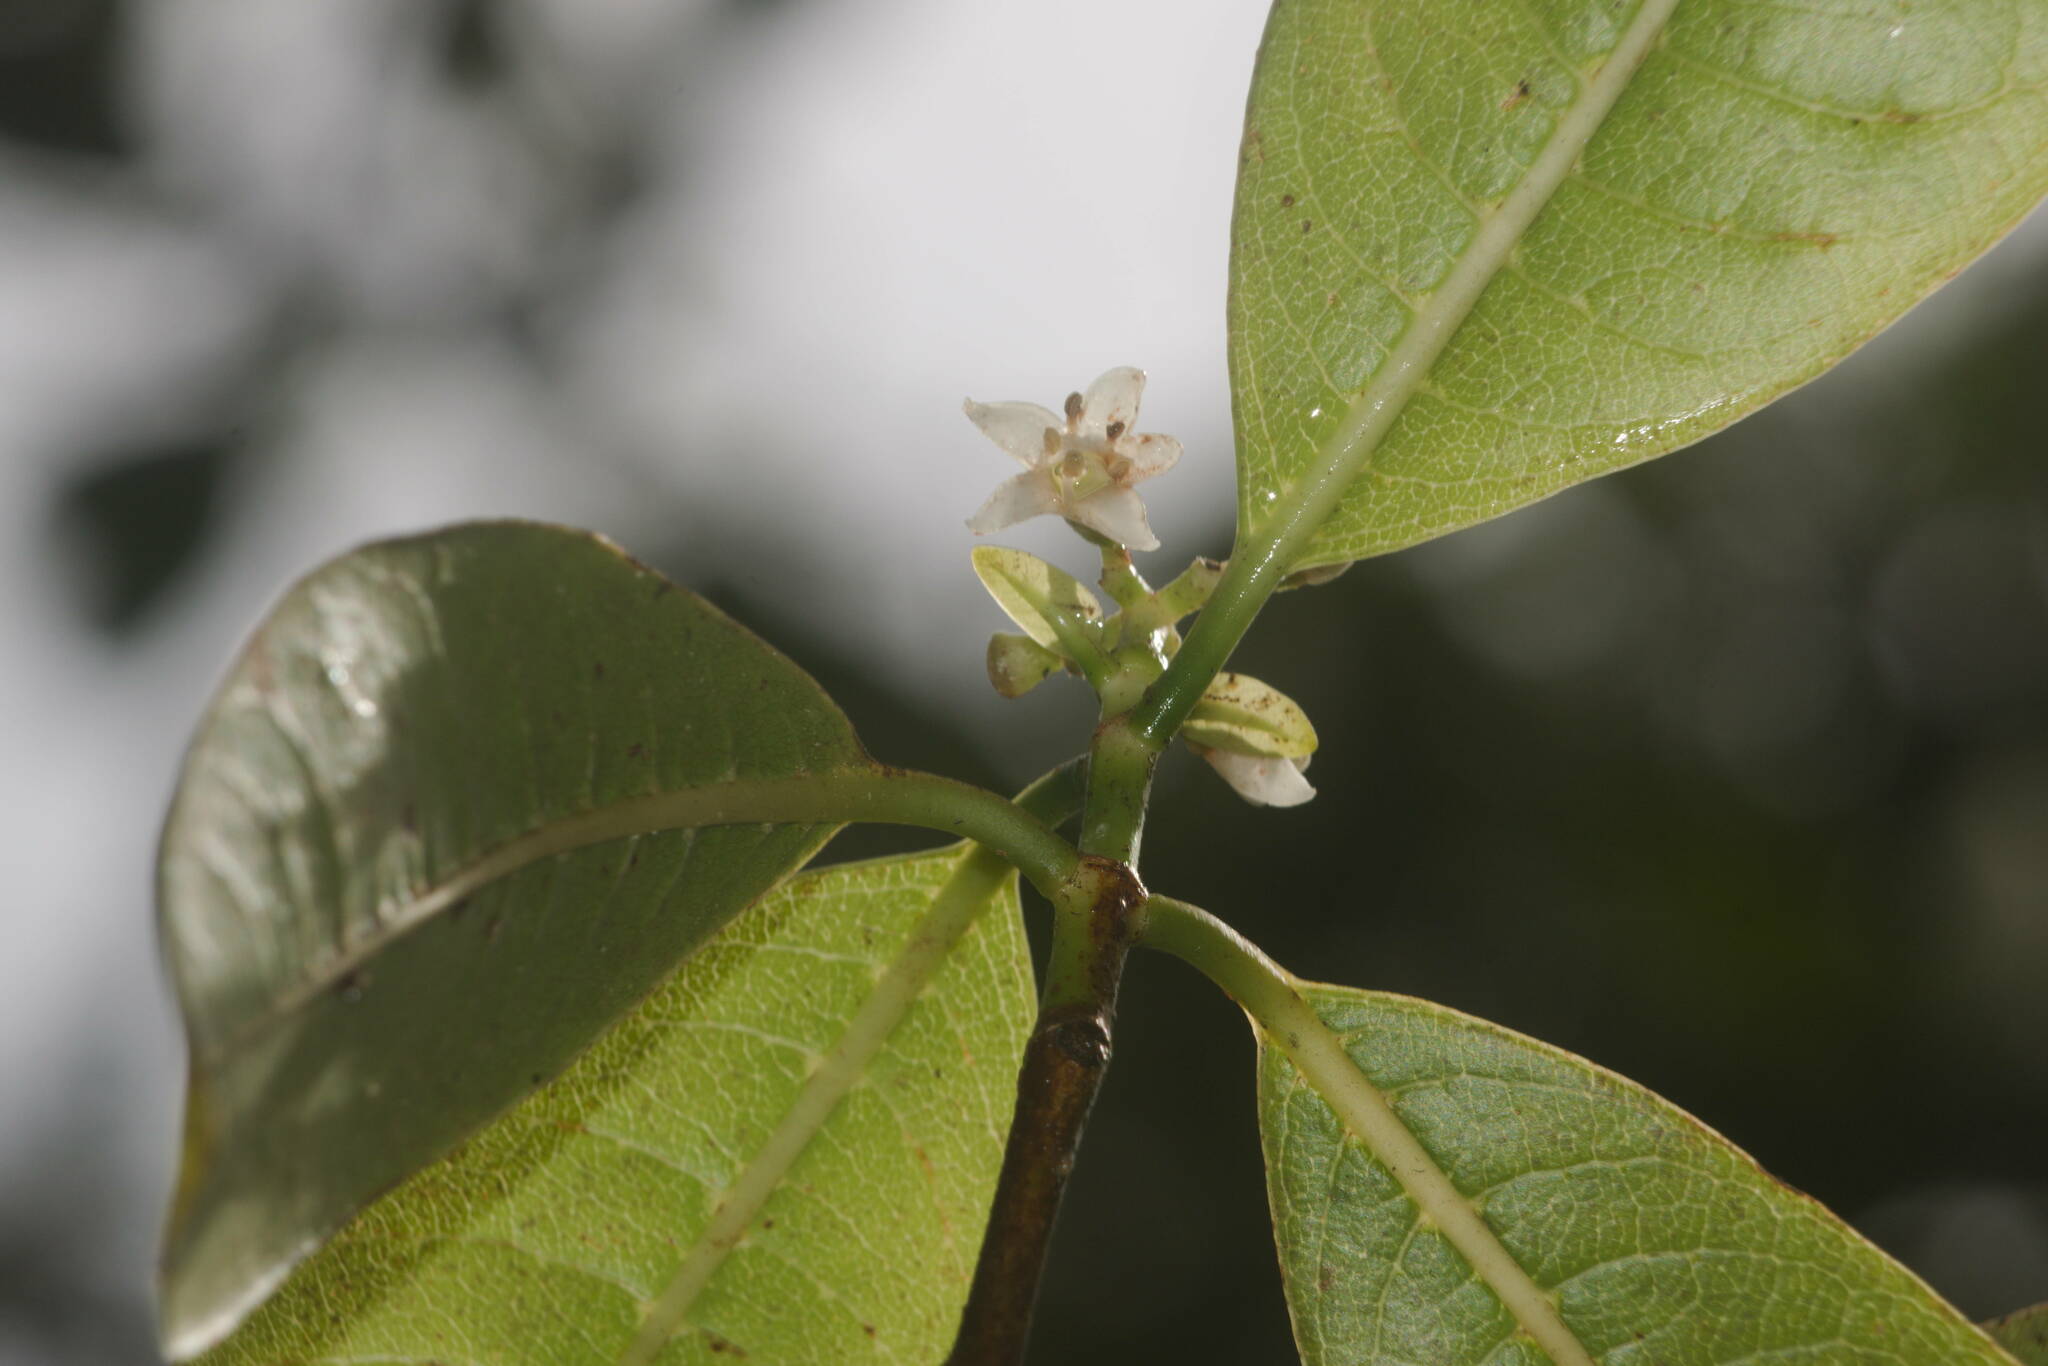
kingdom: Plantae
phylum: Tracheophyta
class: Magnoliopsida
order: Gentianales
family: Rubiaceae
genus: Psychotria
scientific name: Psychotria greenwelliae
